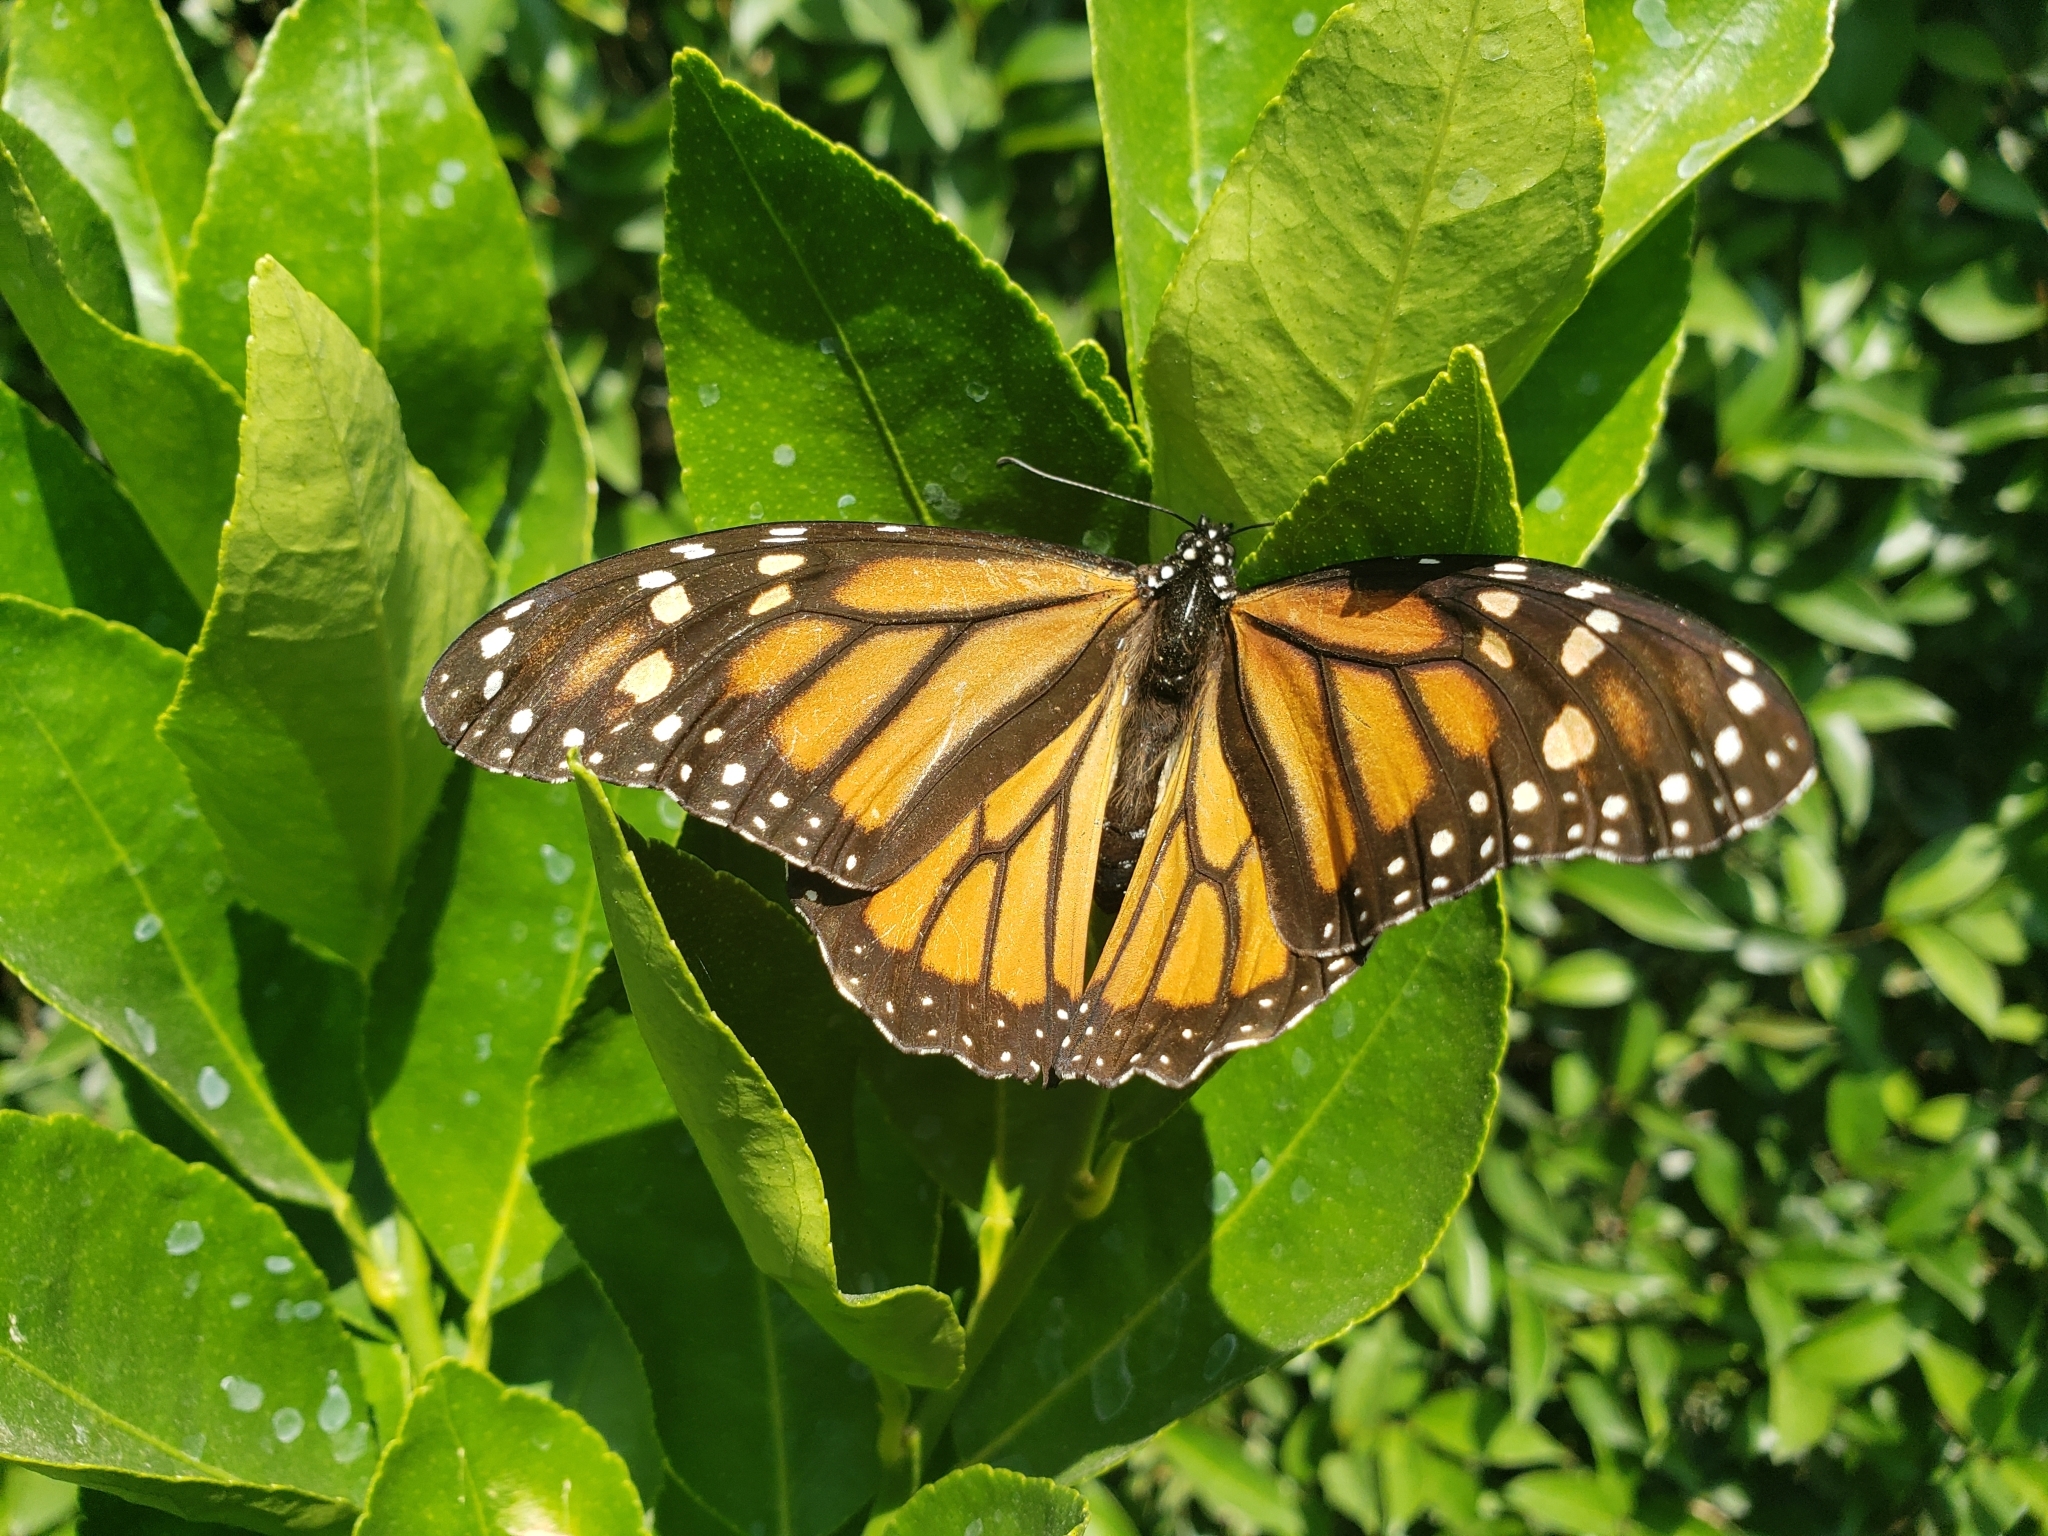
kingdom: Animalia
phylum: Arthropoda
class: Insecta
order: Lepidoptera
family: Nymphalidae
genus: Danaus
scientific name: Danaus plexippus
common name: Monarch
